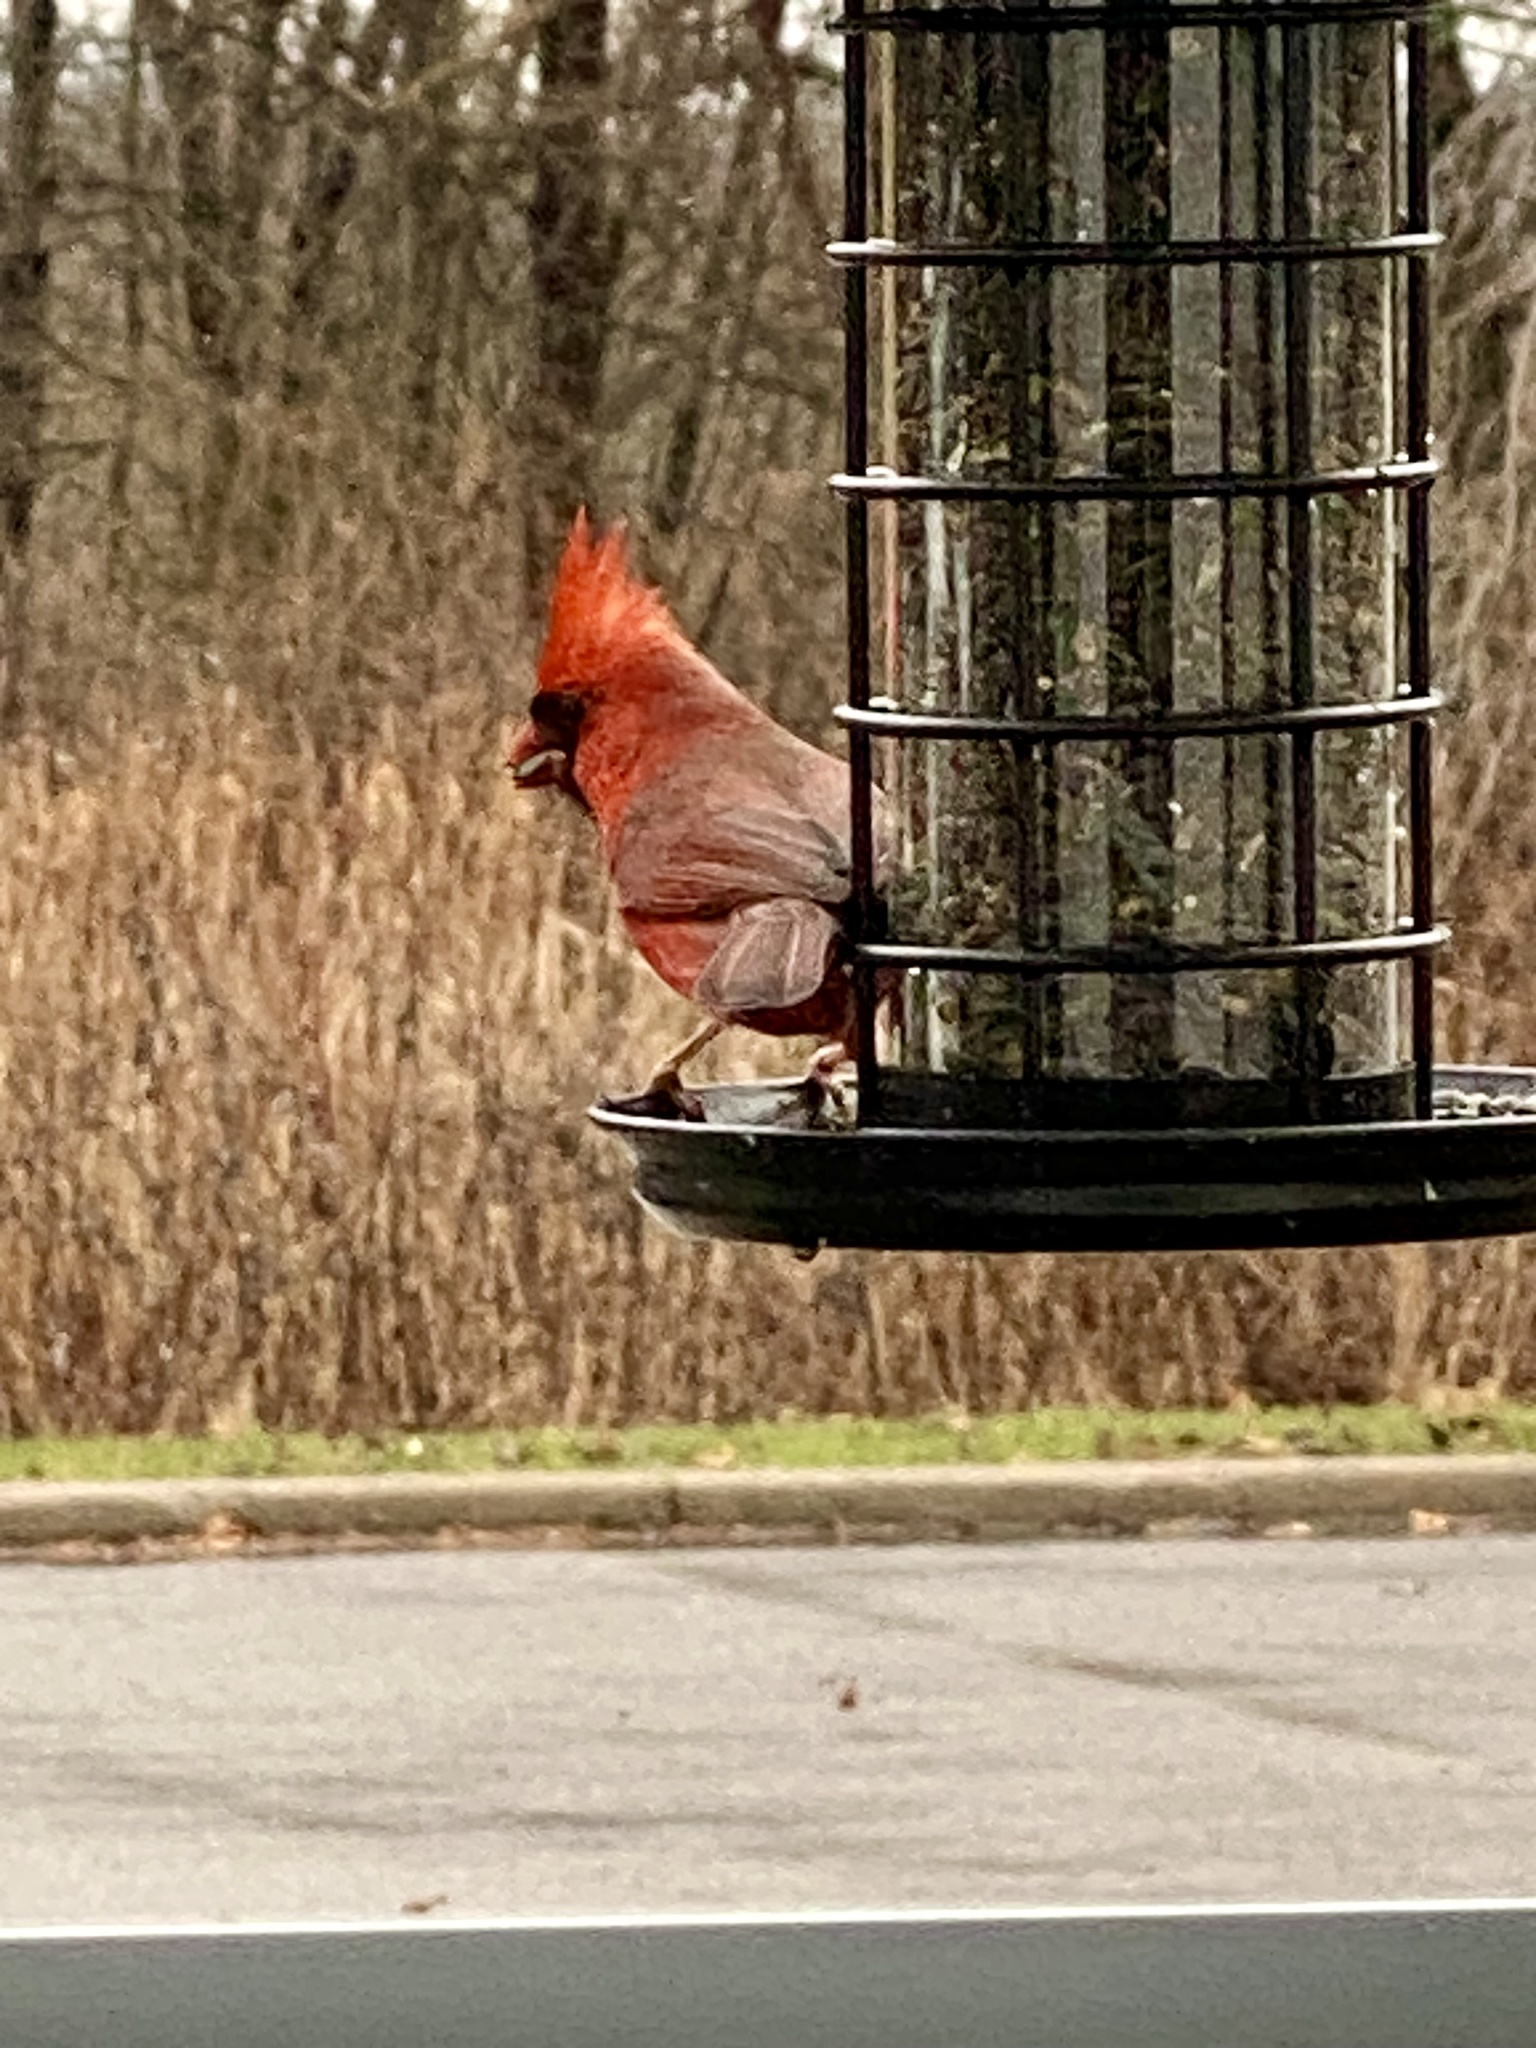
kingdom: Animalia
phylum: Chordata
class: Aves
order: Passeriformes
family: Cardinalidae
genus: Cardinalis
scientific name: Cardinalis cardinalis
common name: Northern cardinal
